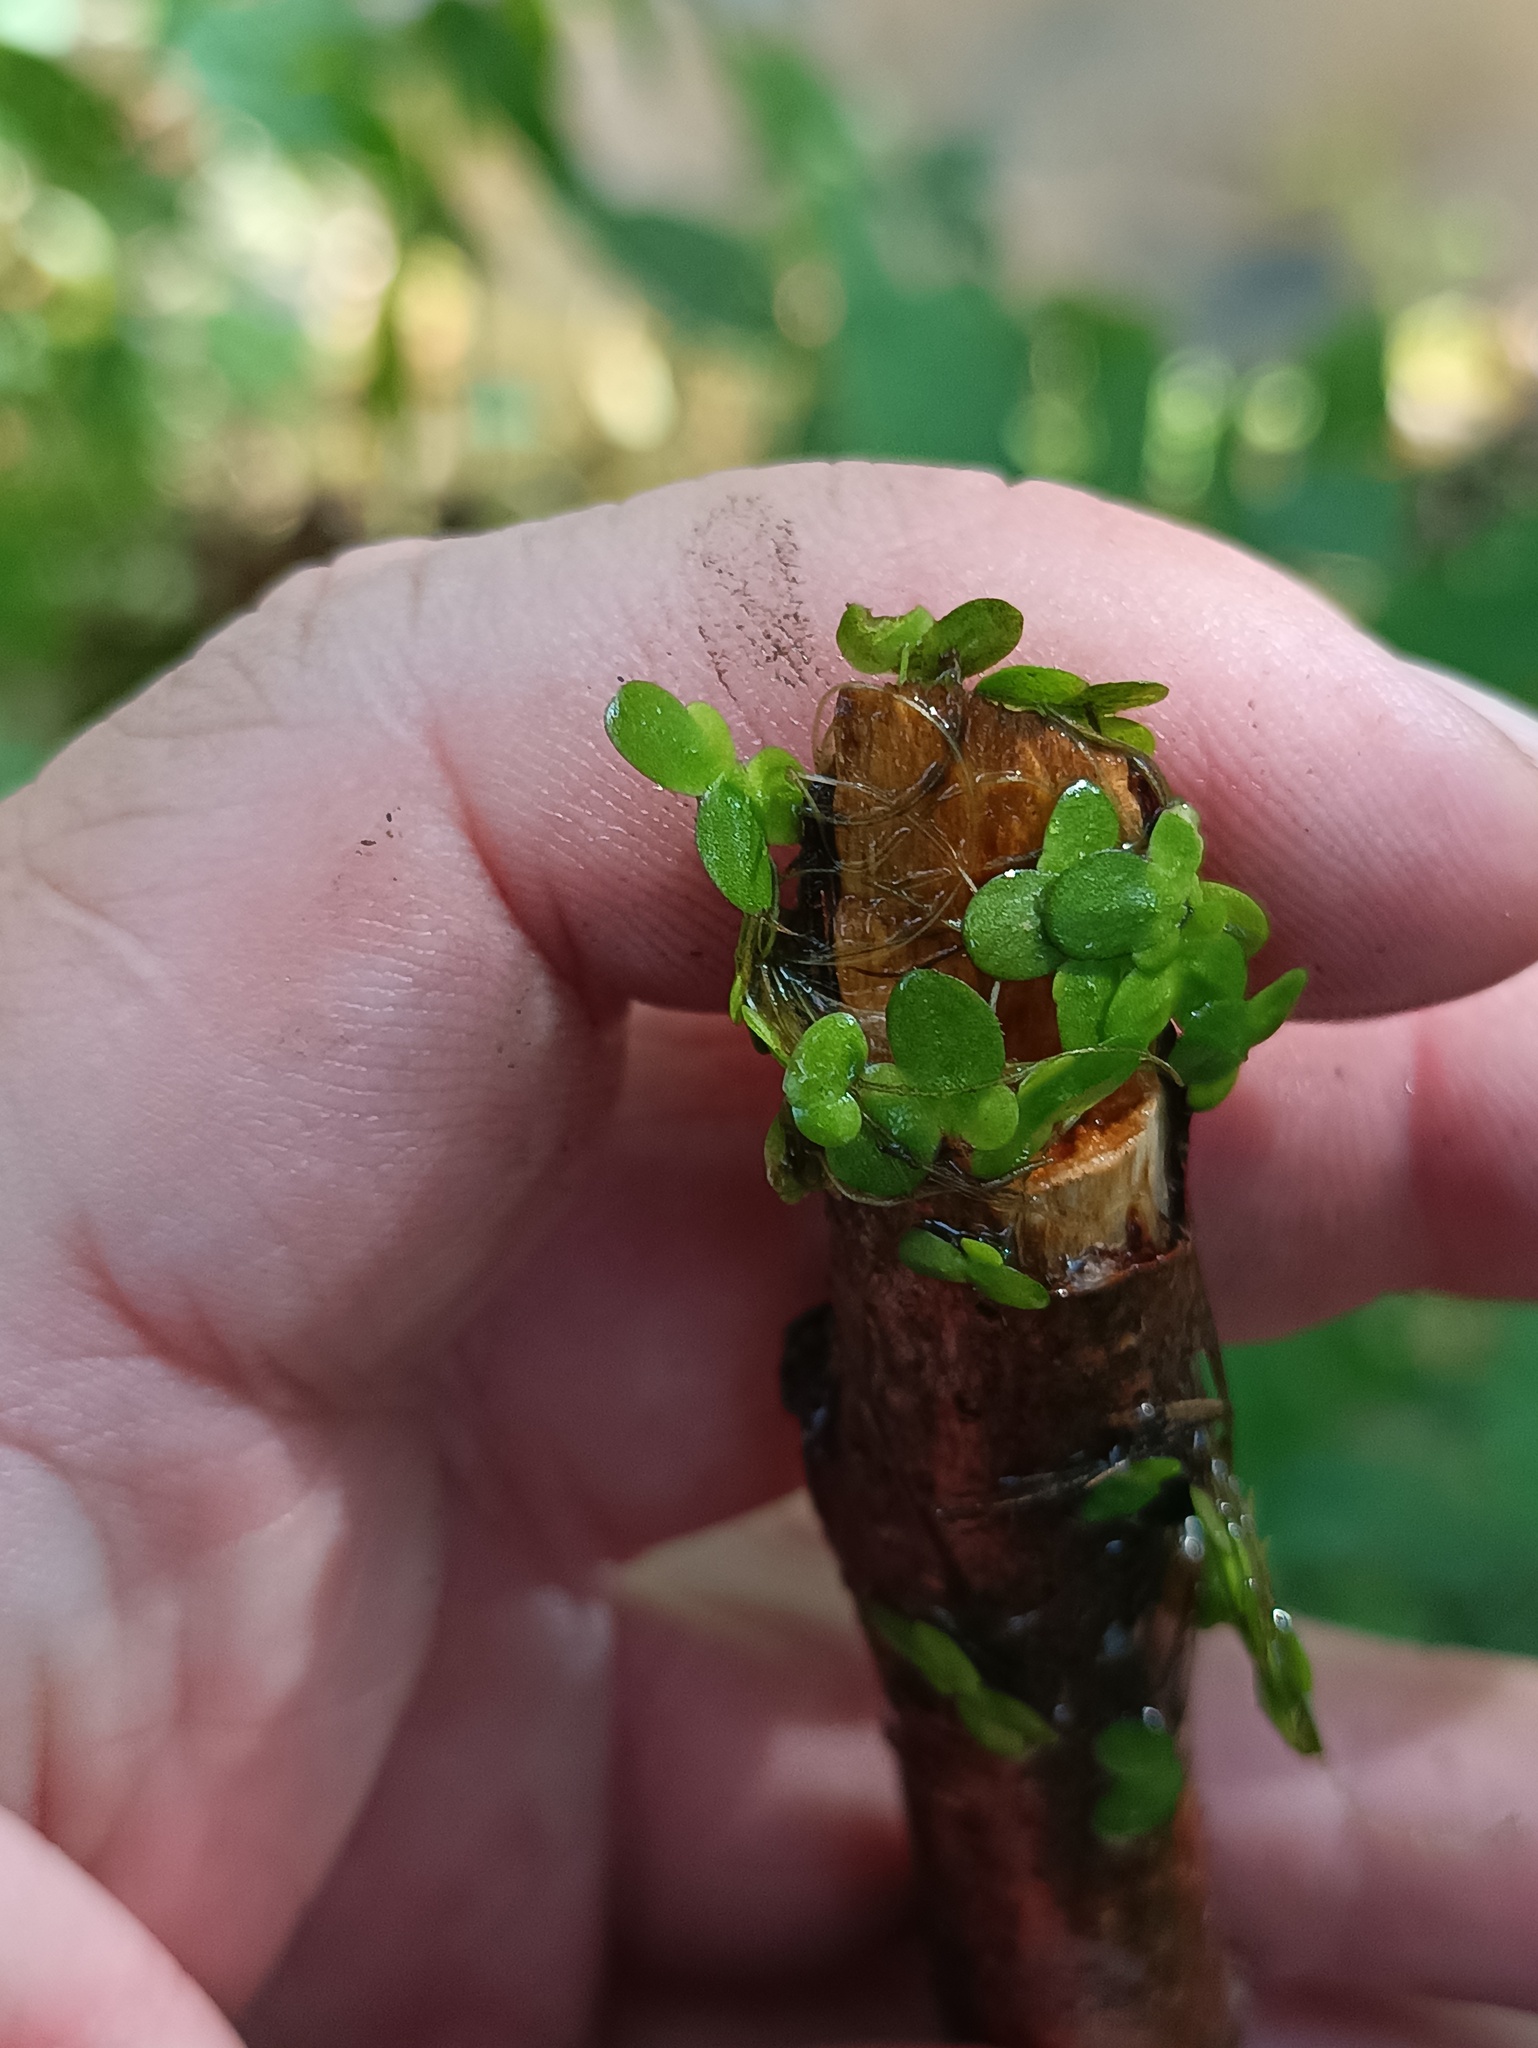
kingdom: Plantae
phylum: Tracheophyta
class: Liliopsida
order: Alismatales
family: Araceae
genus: Lemna
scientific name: Lemna minor
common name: Common duckweed
